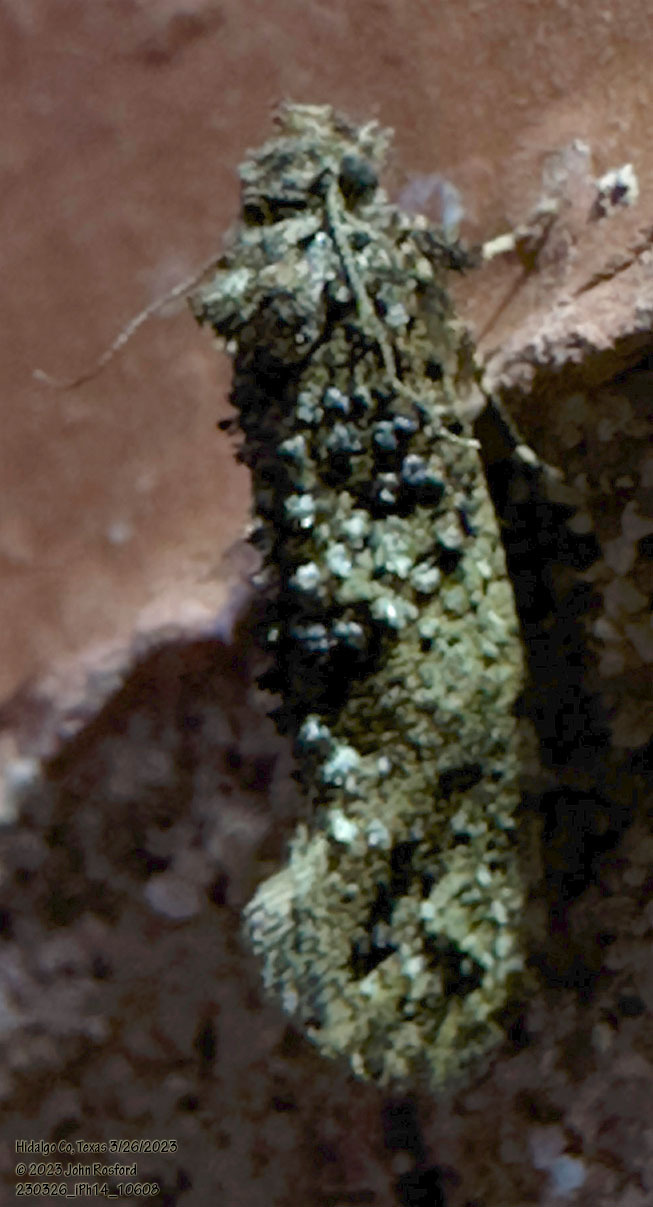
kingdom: Animalia
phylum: Arthropoda
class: Insecta
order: Lepidoptera
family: Tineidae
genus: Acrolophus
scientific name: Acrolophus cressoni
